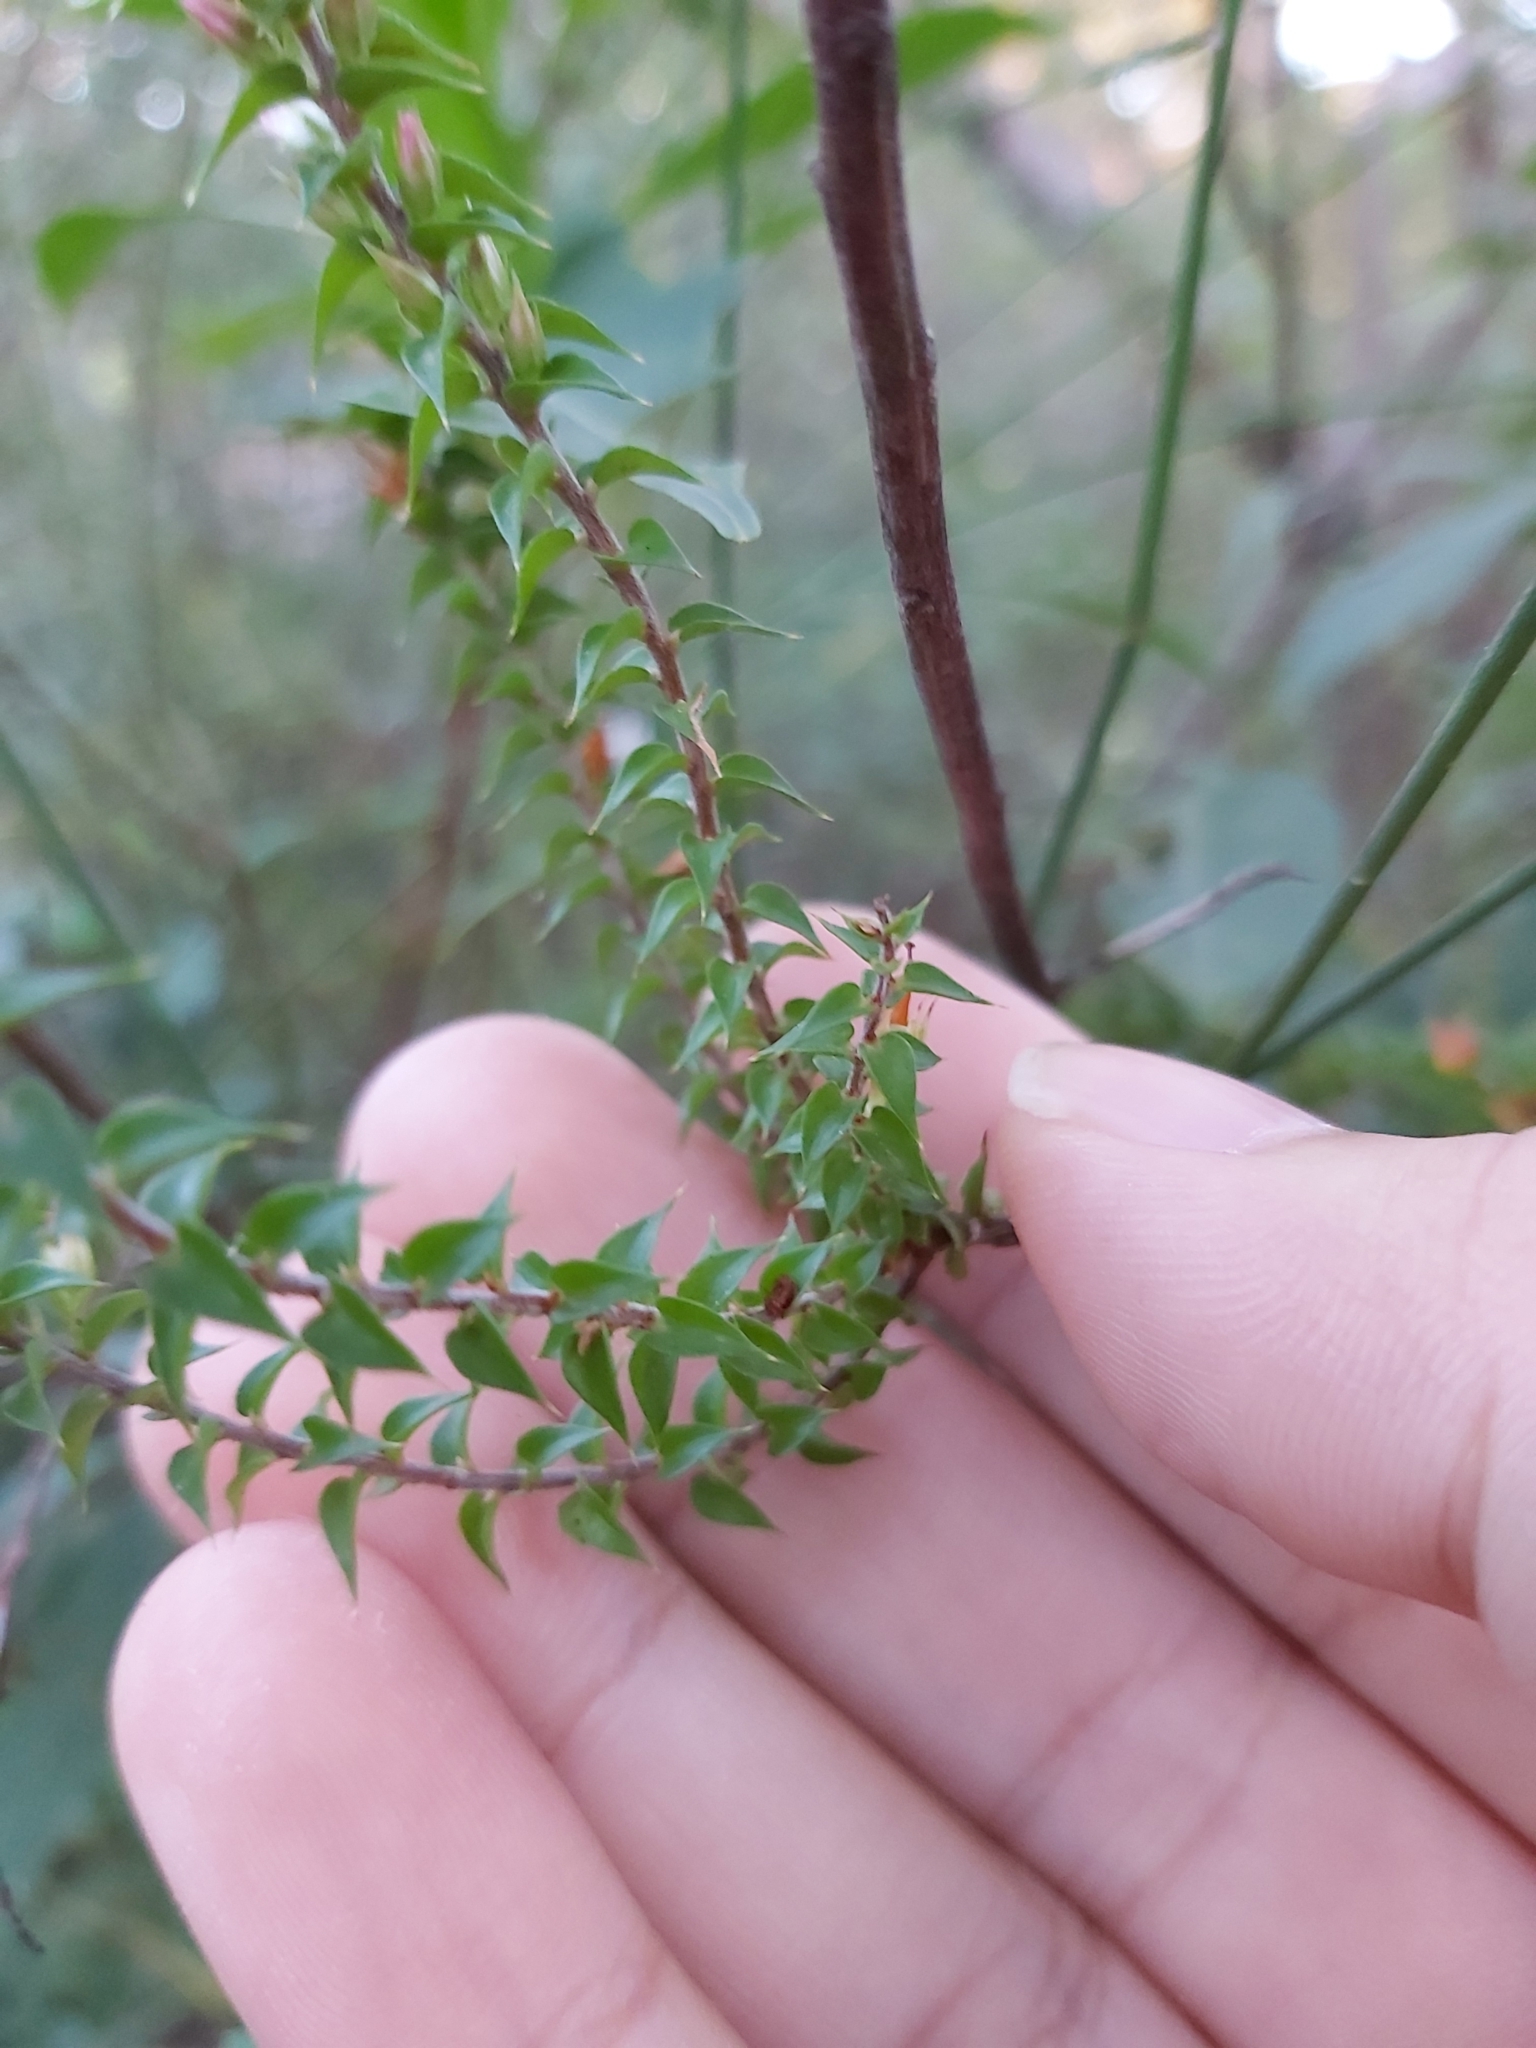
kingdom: Plantae
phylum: Tracheophyta
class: Magnoliopsida
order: Ericales
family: Ericaceae
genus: Epacris
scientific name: Epacris pulchella
